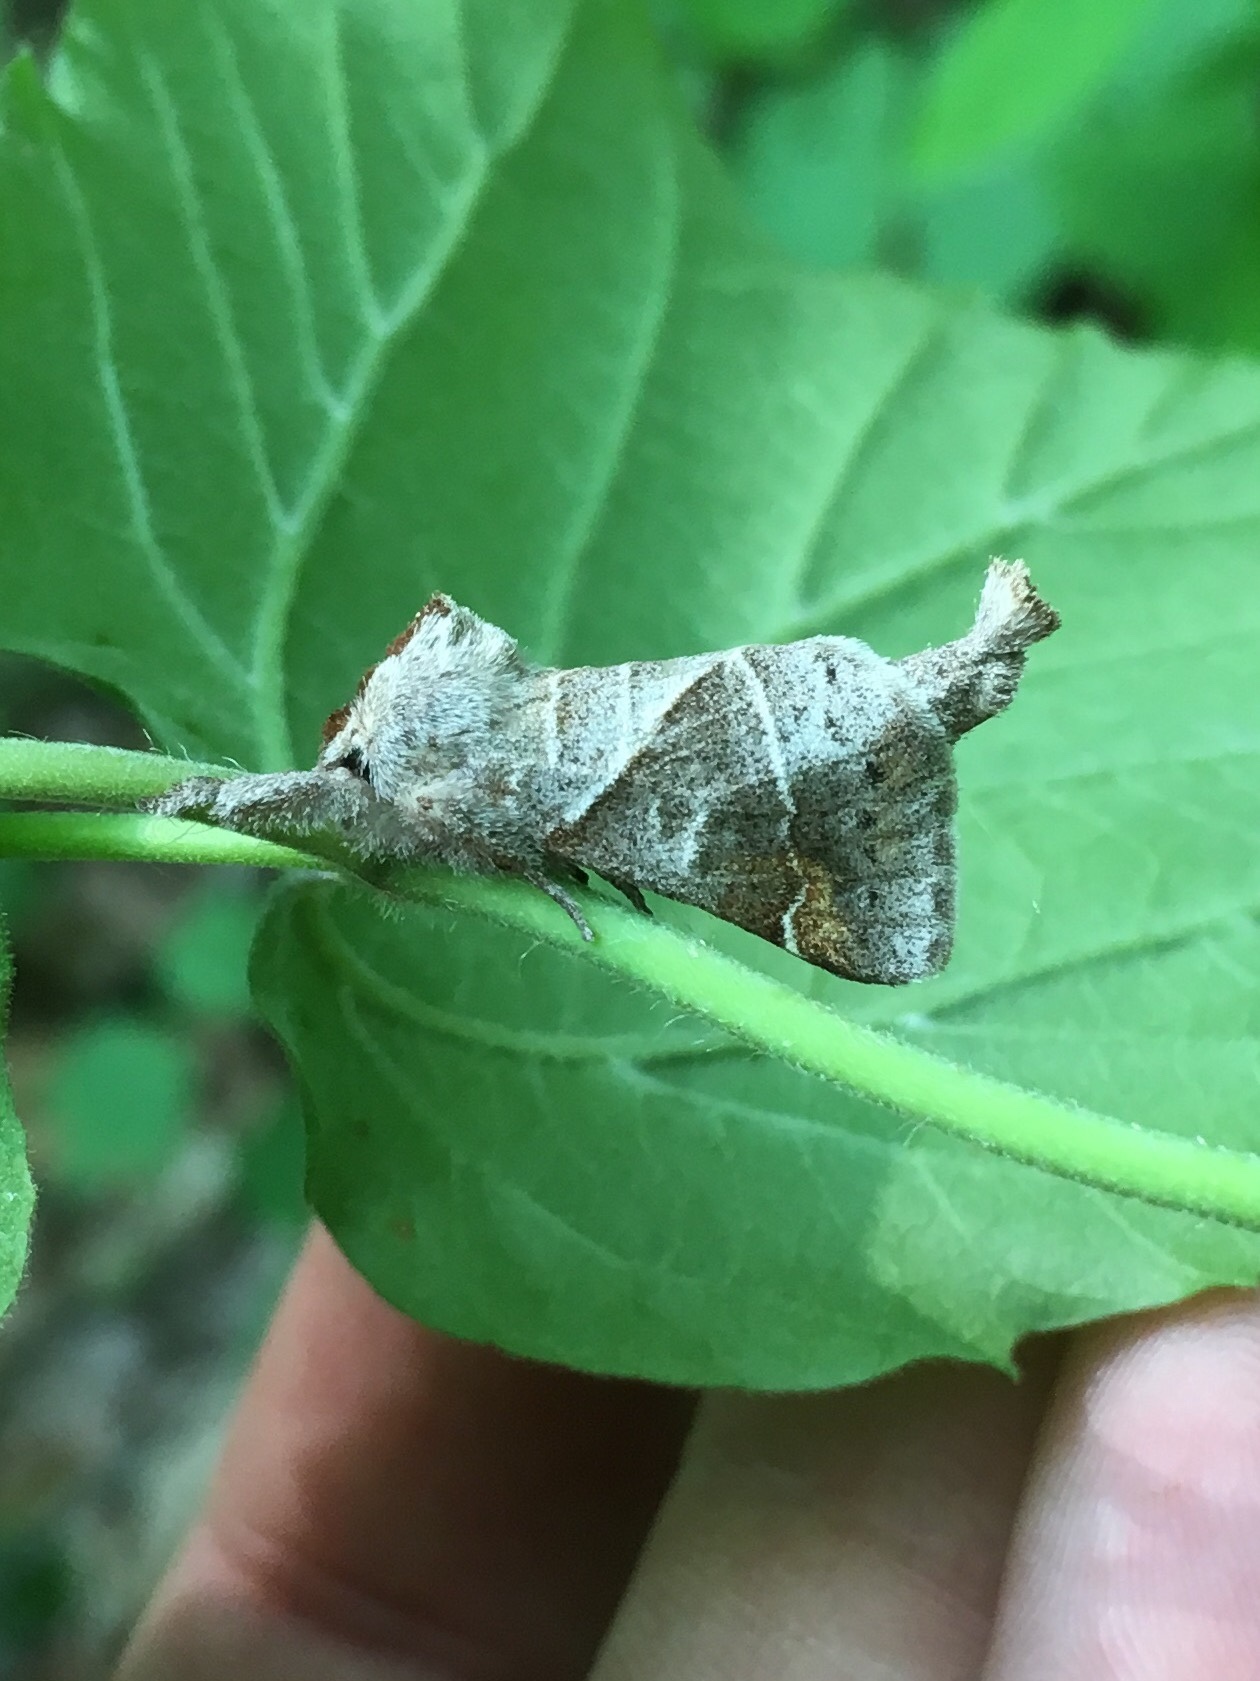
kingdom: Animalia
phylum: Arthropoda
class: Insecta
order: Lepidoptera
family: Notodontidae
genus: Clostera
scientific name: Clostera apicalis
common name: Apical prominent
